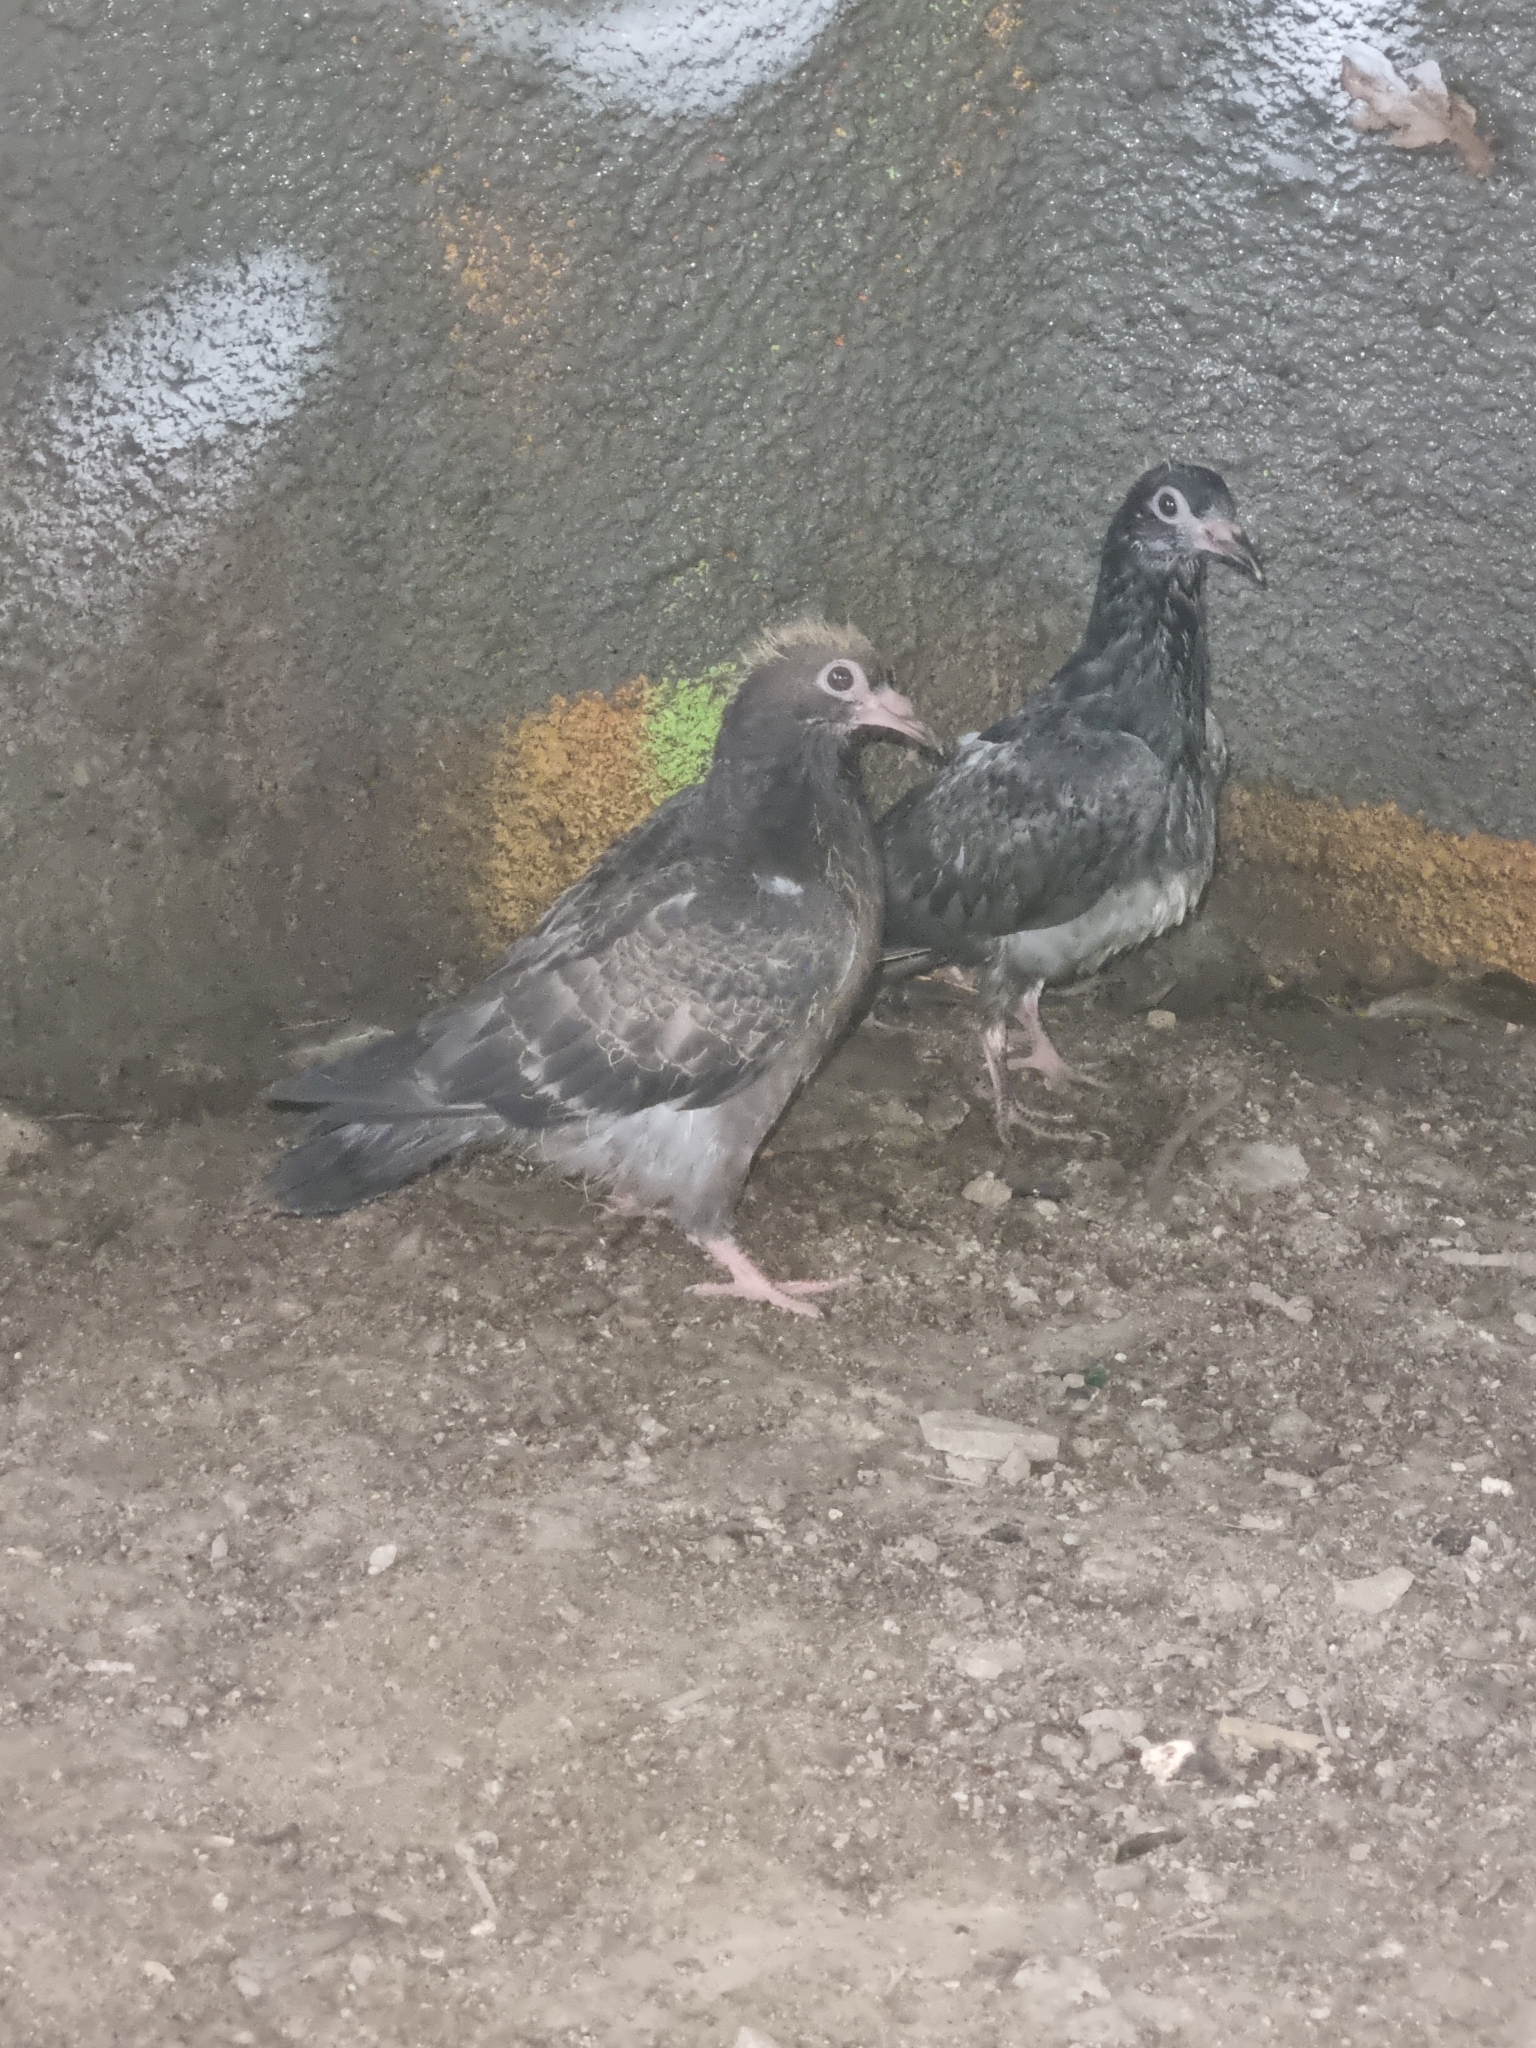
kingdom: Animalia
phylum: Chordata
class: Aves
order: Columbiformes
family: Columbidae
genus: Columba
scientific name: Columba livia
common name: Rock pigeon
